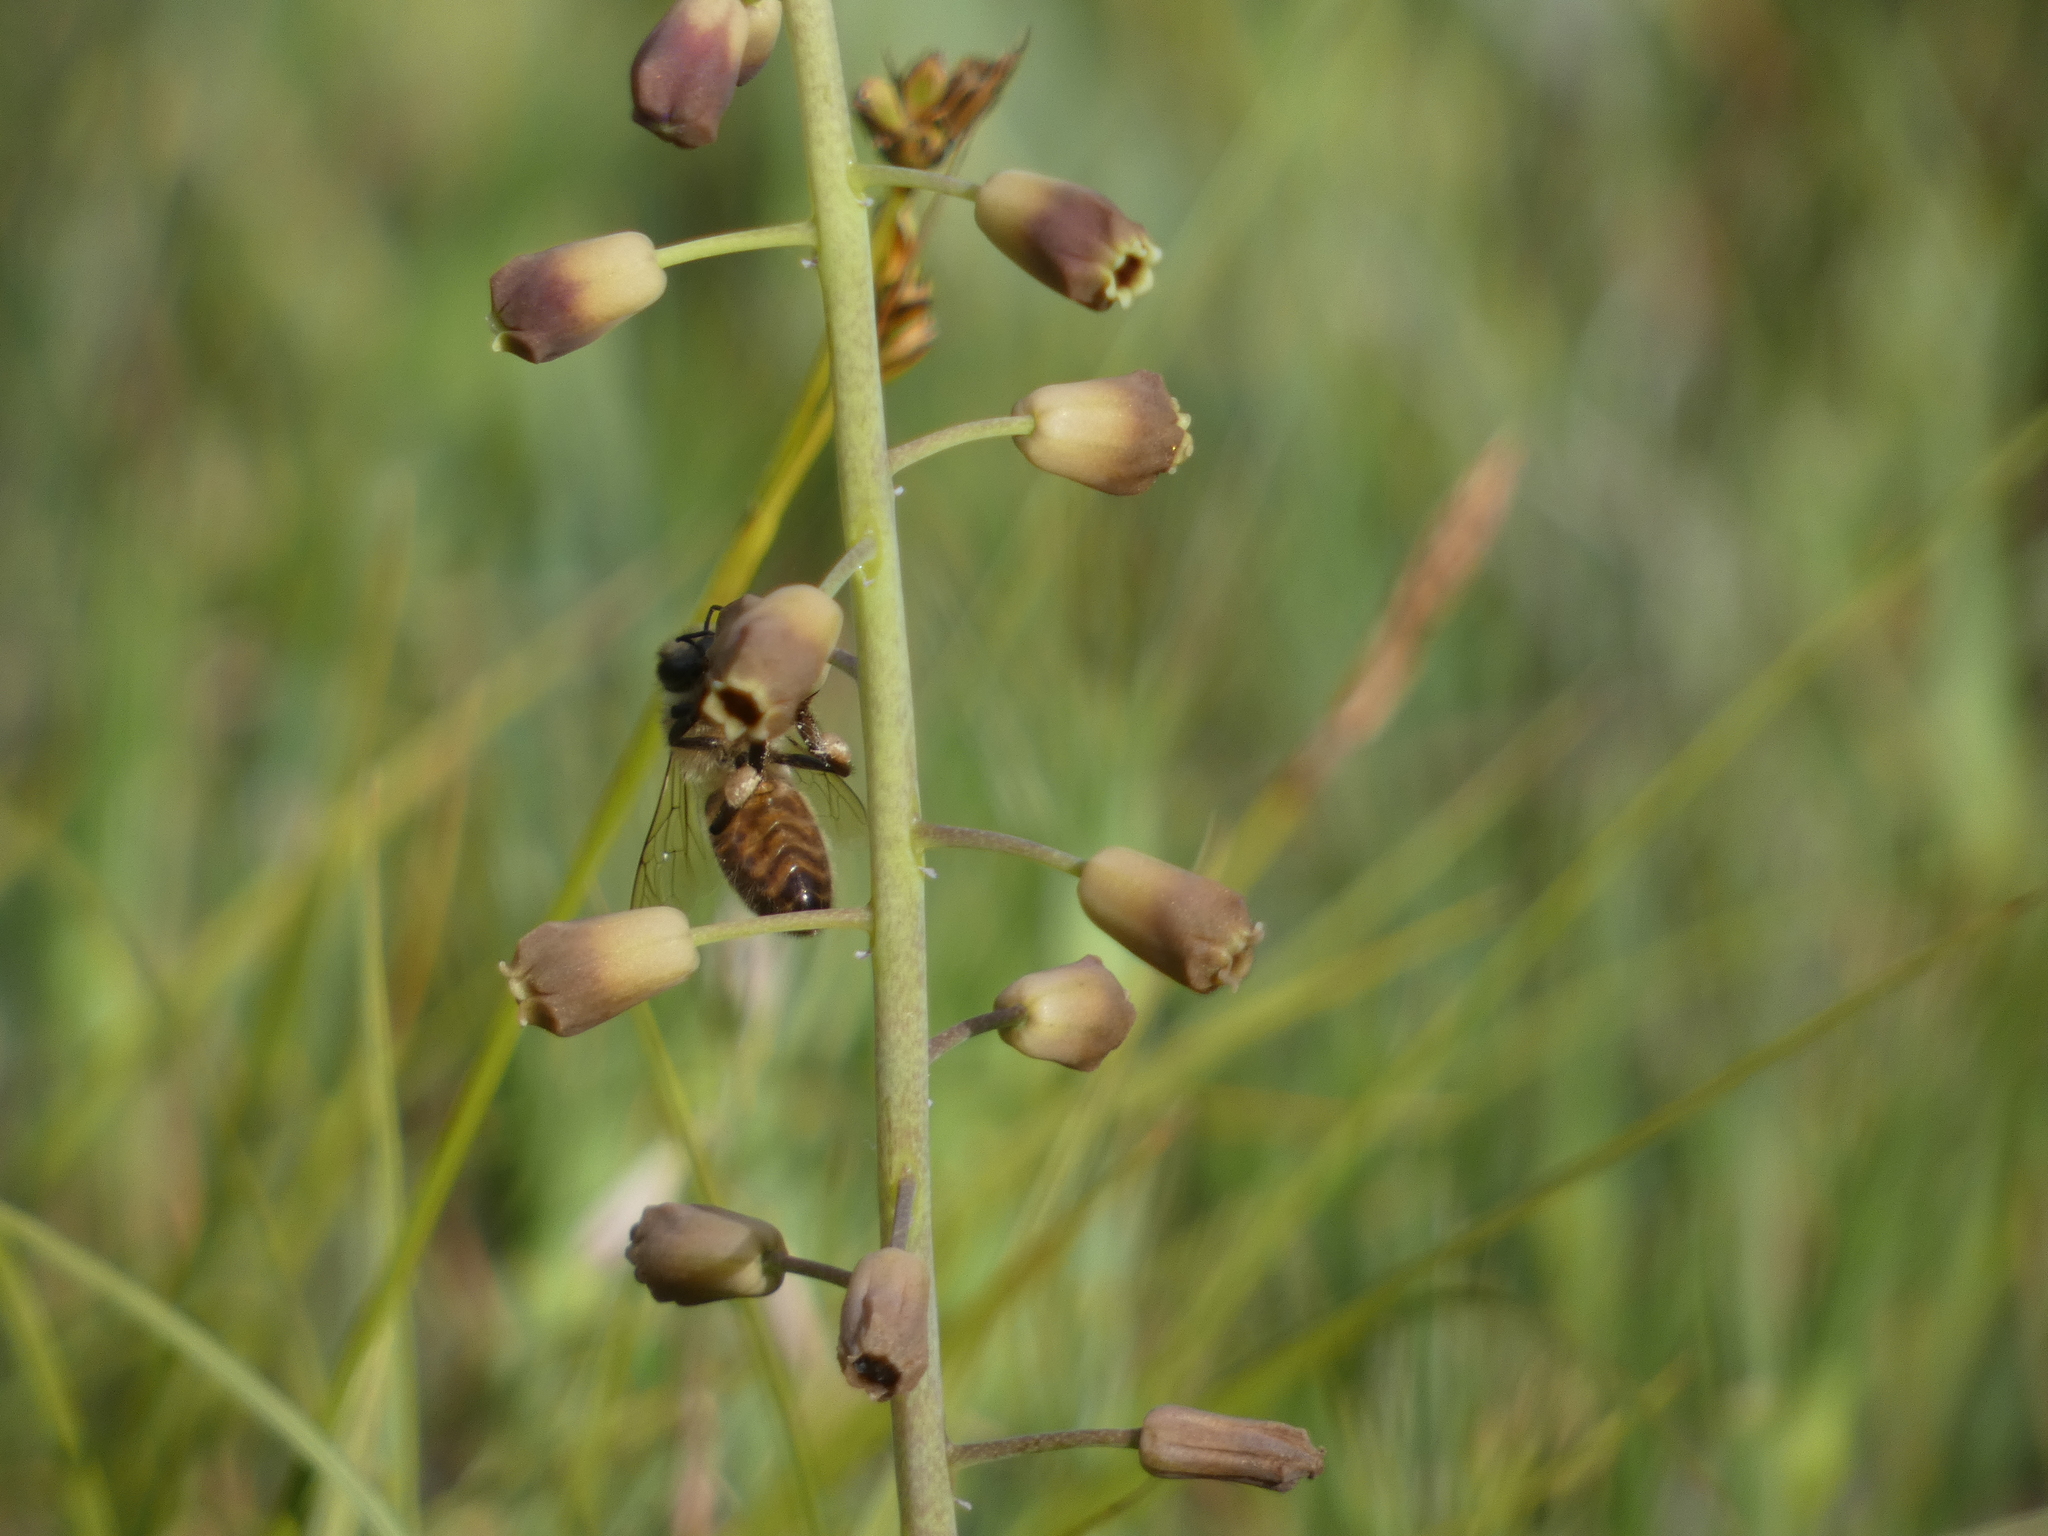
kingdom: Animalia
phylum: Arthropoda
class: Insecta
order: Hymenoptera
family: Apidae
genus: Apis
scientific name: Apis mellifera
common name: Honey bee
